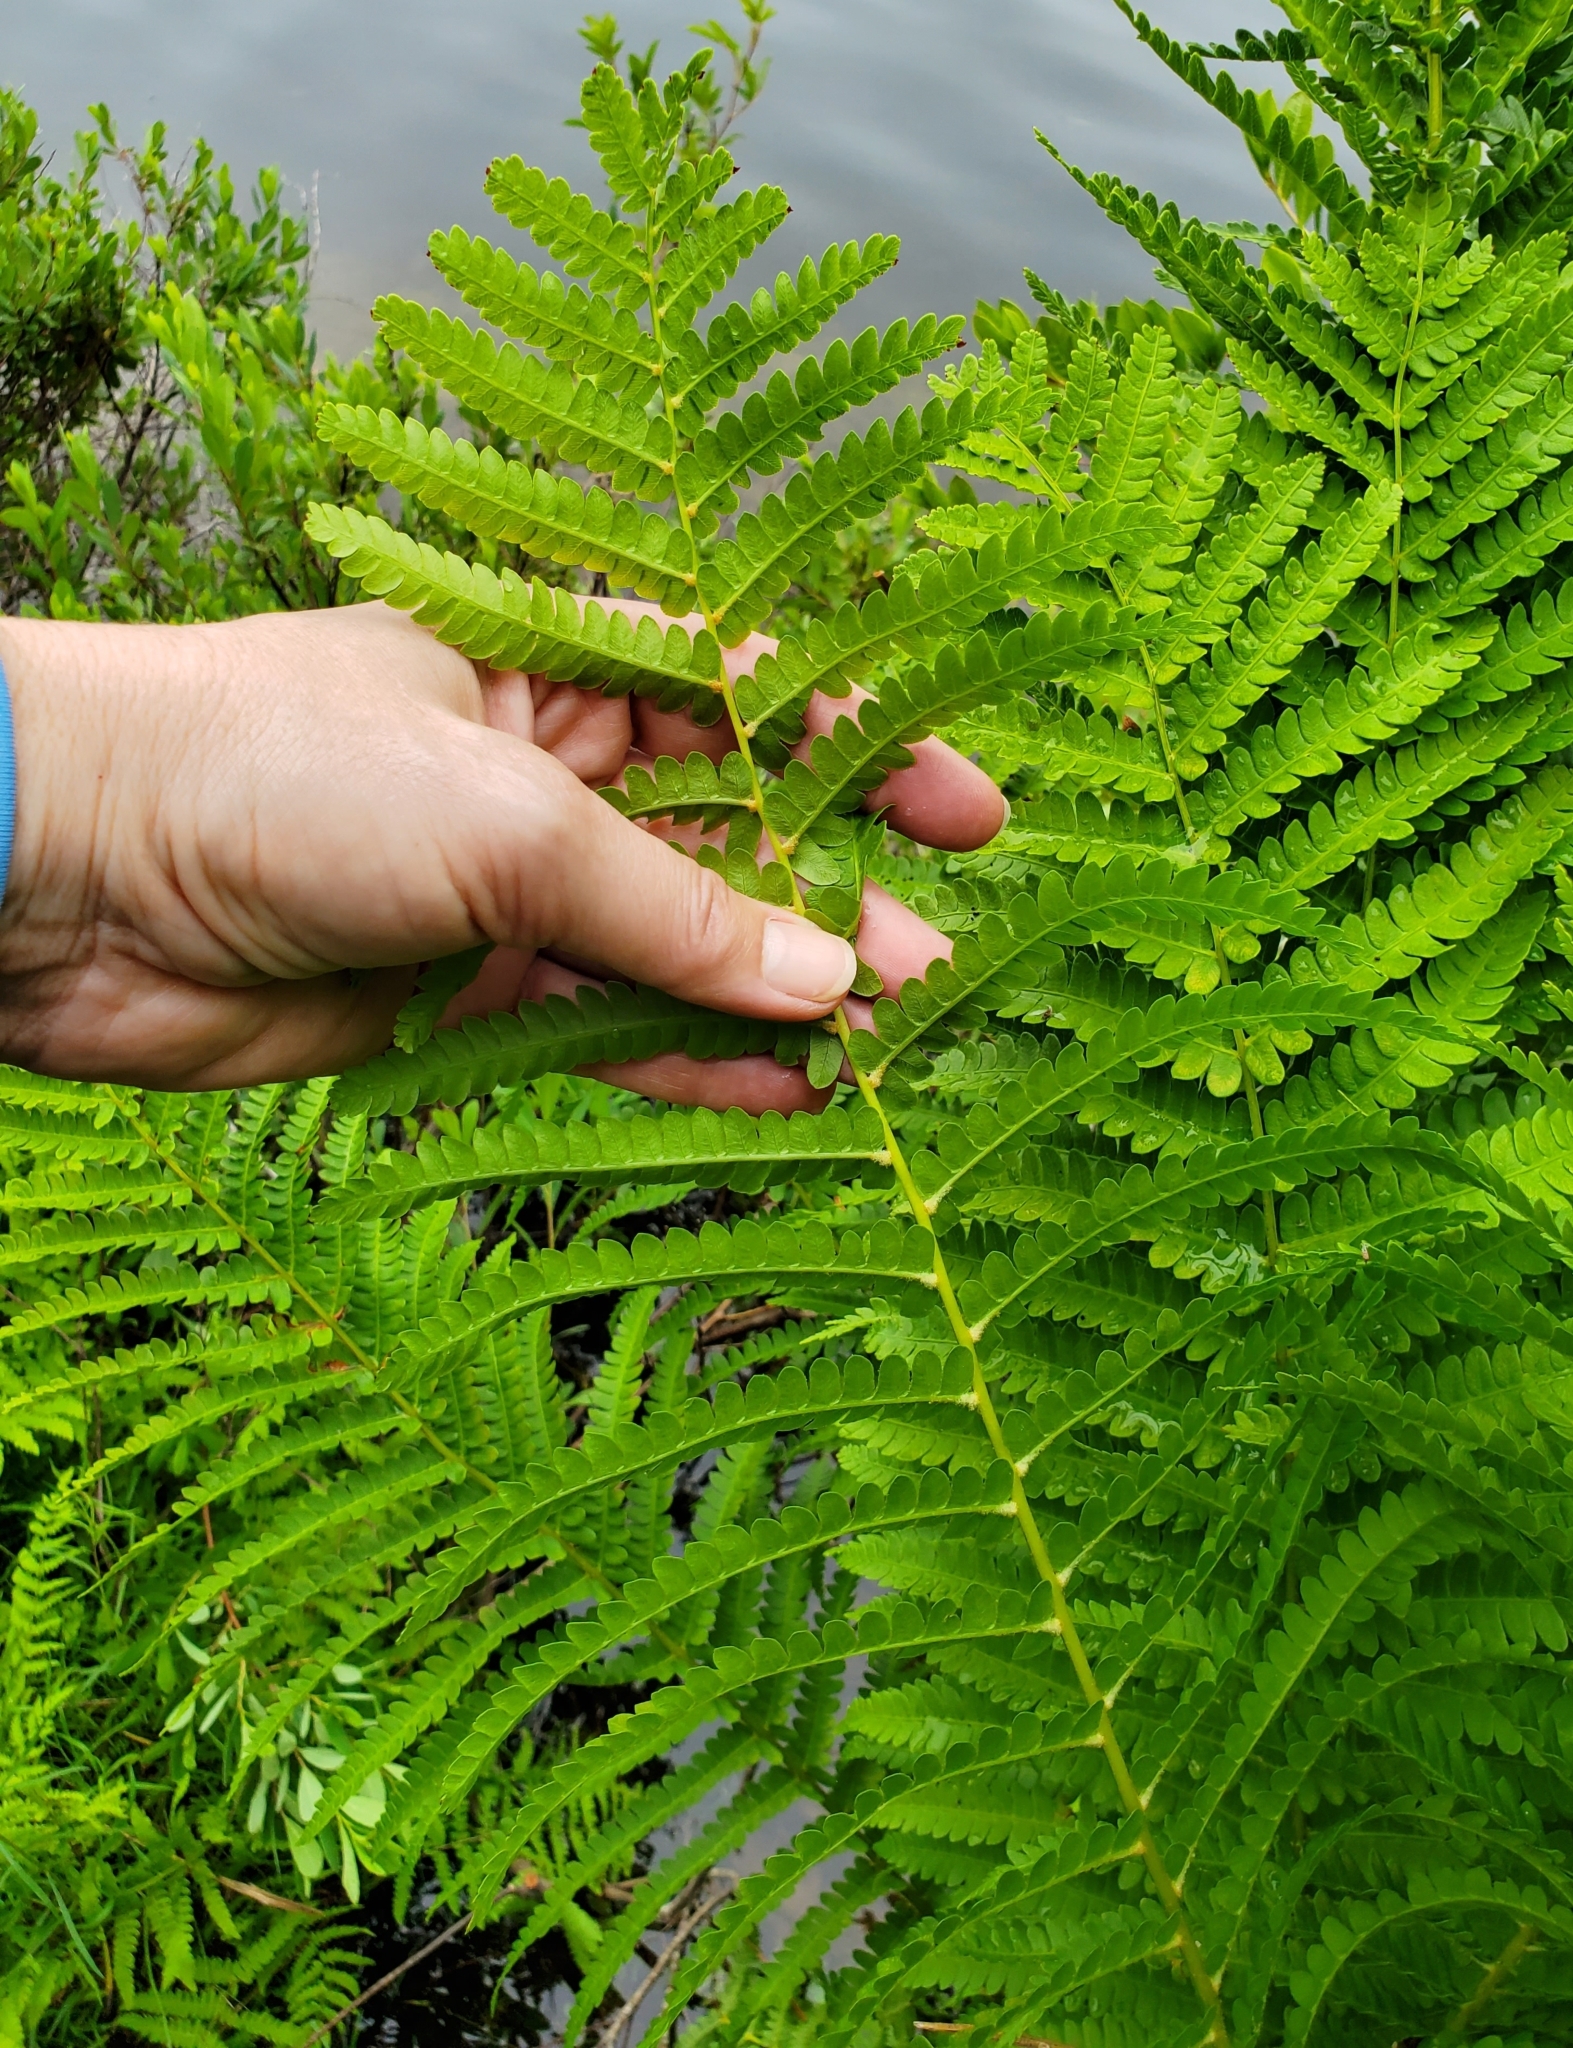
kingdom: Plantae
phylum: Tracheophyta
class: Polypodiopsida
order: Osmundales
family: Osmundaceae
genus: Osmundastrum
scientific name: Osmundastrum cinnamomeum
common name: Cinnamon fern
